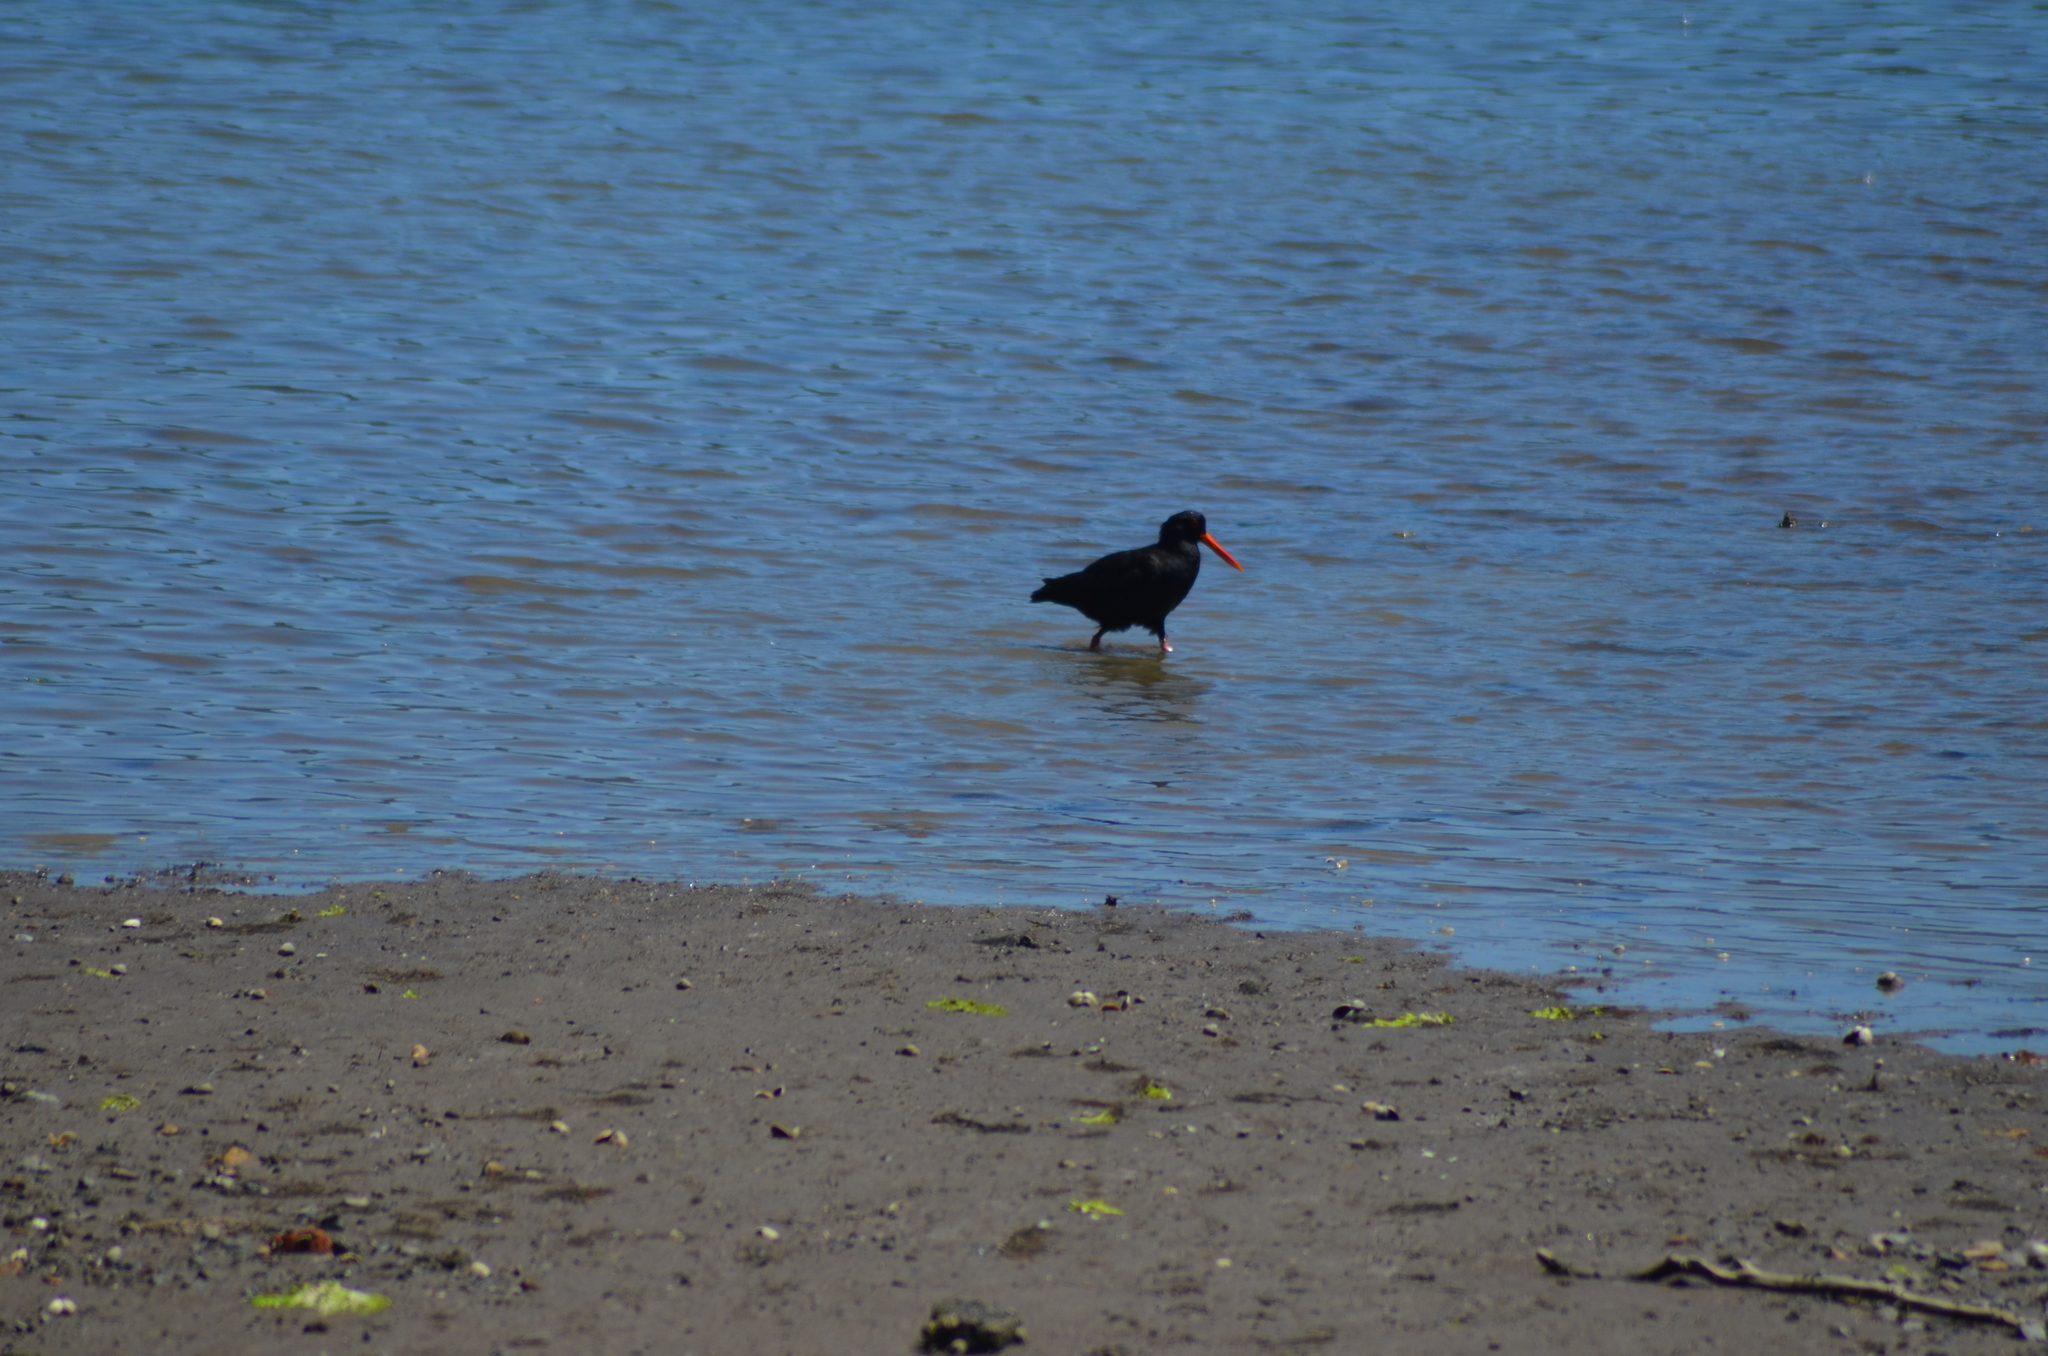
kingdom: Animalia
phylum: Chordata
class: Aves
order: Charadriiformes
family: Haematopodidae
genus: Haematopus
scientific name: Haematopus unicolor
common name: Variable oystercatcher
